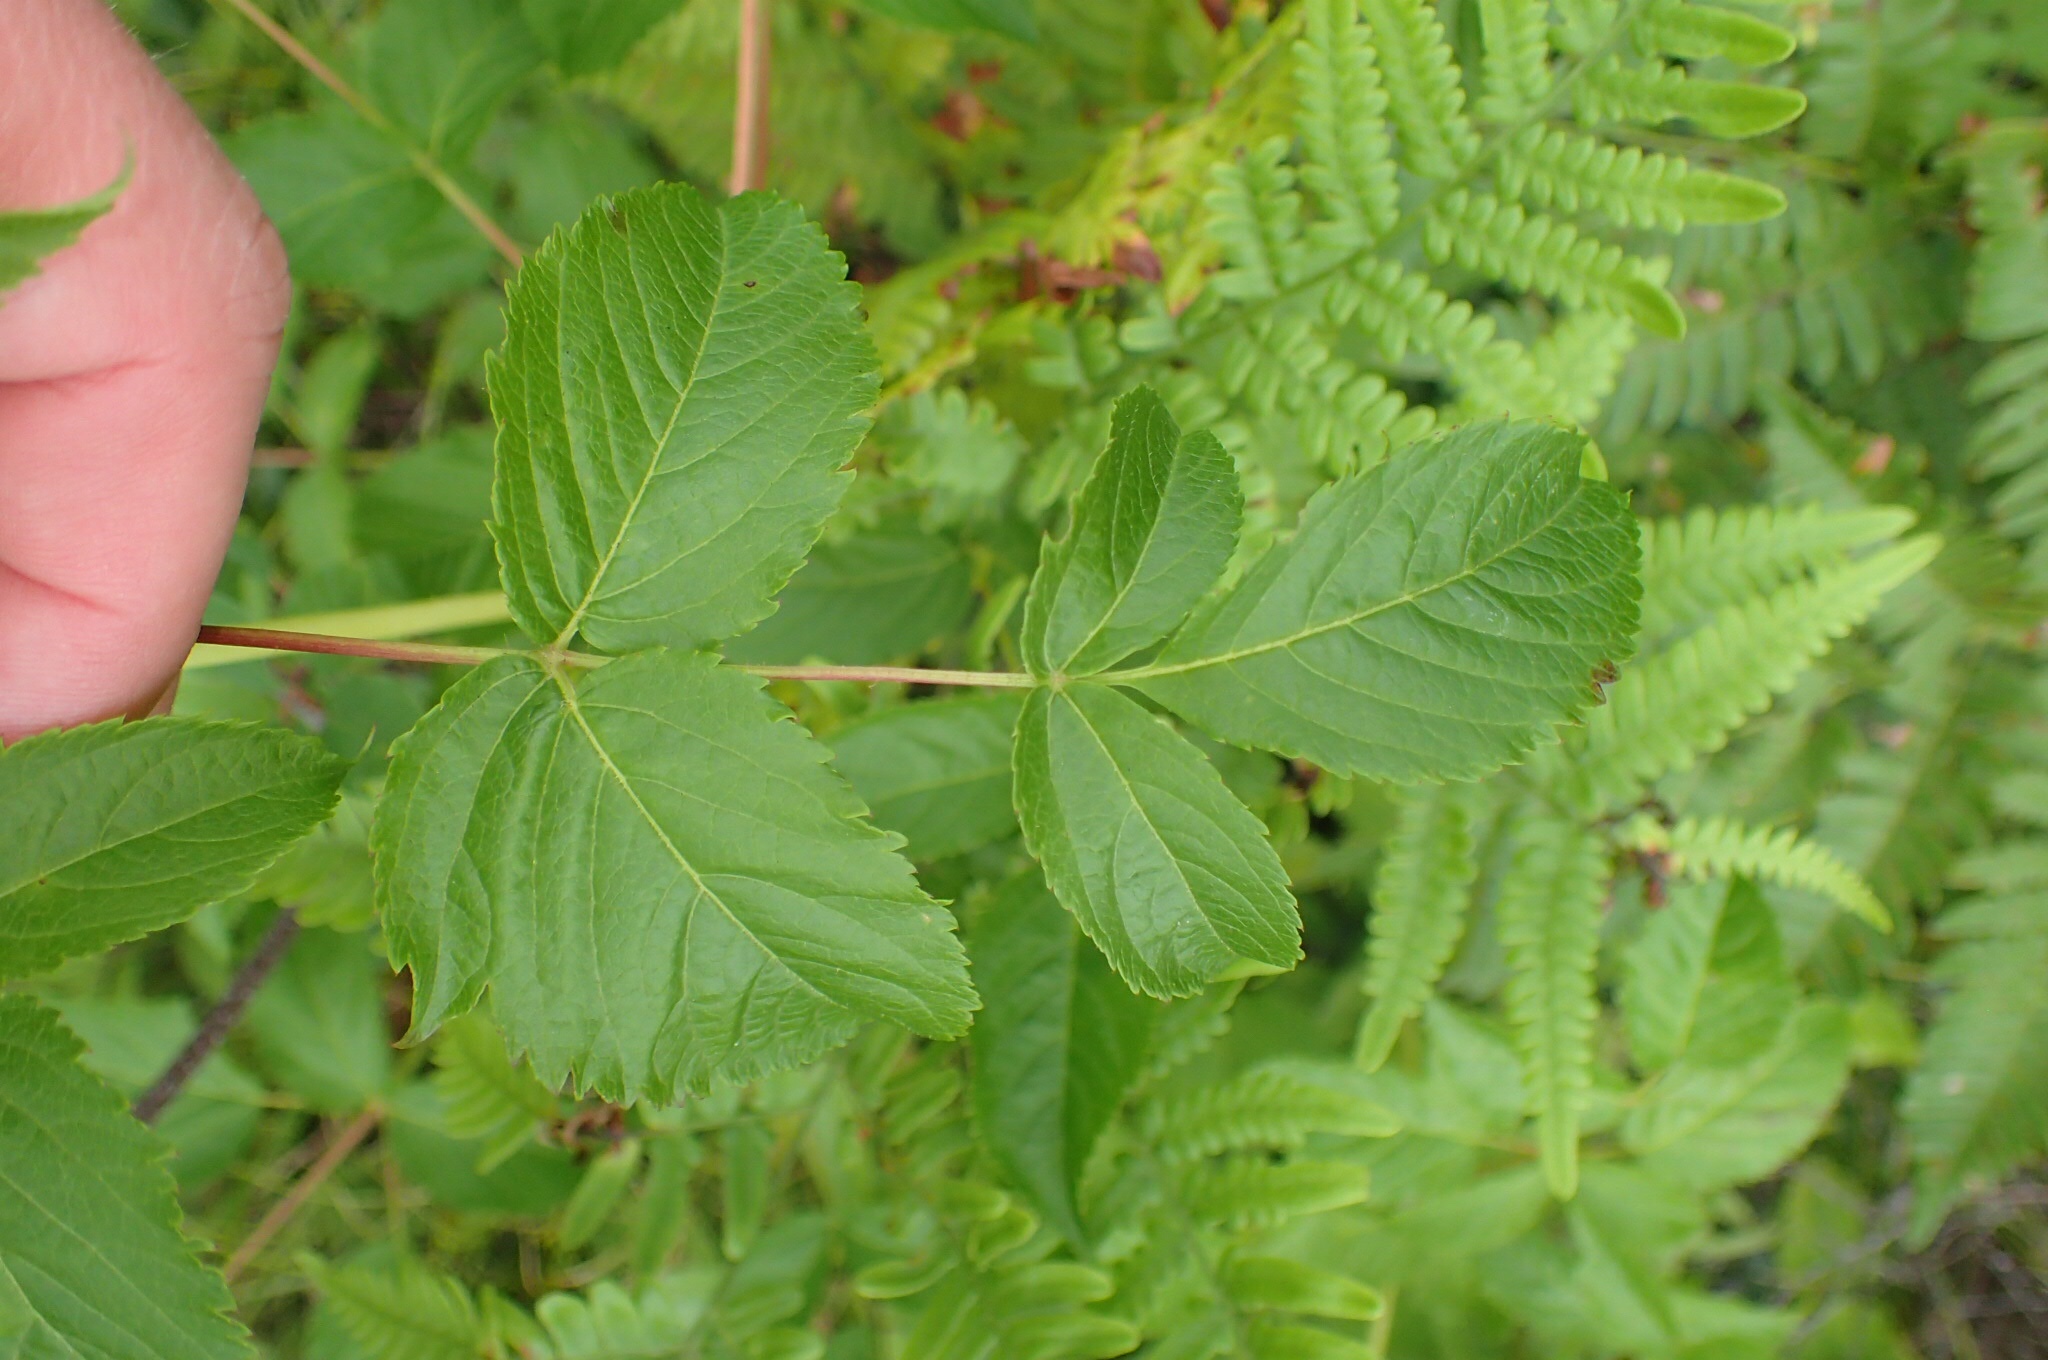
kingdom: Plantae
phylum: Tracheophyta
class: Magnoliopsida
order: Apiales
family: Araliaceae
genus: Aralia
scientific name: Aralia hispida
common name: Bristly sarsaparilla
